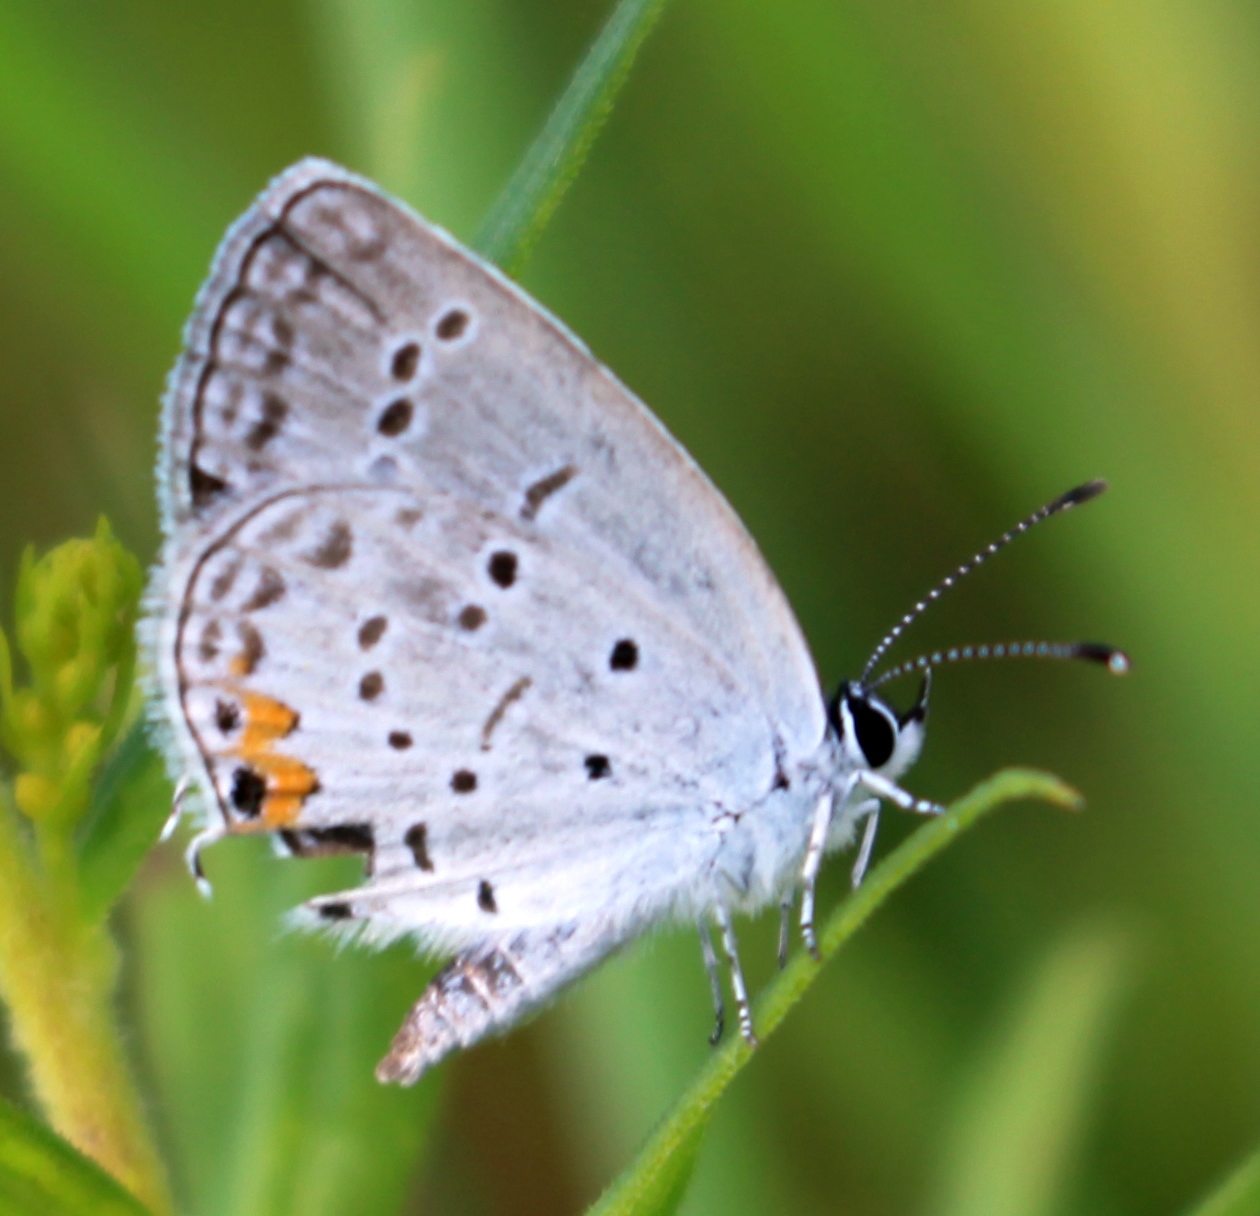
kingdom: Animalia
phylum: Arthropoda
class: Insecta
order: Lepidoptera
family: Lycaenidae
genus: Elkalyce
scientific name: Elkalyce comyntas
